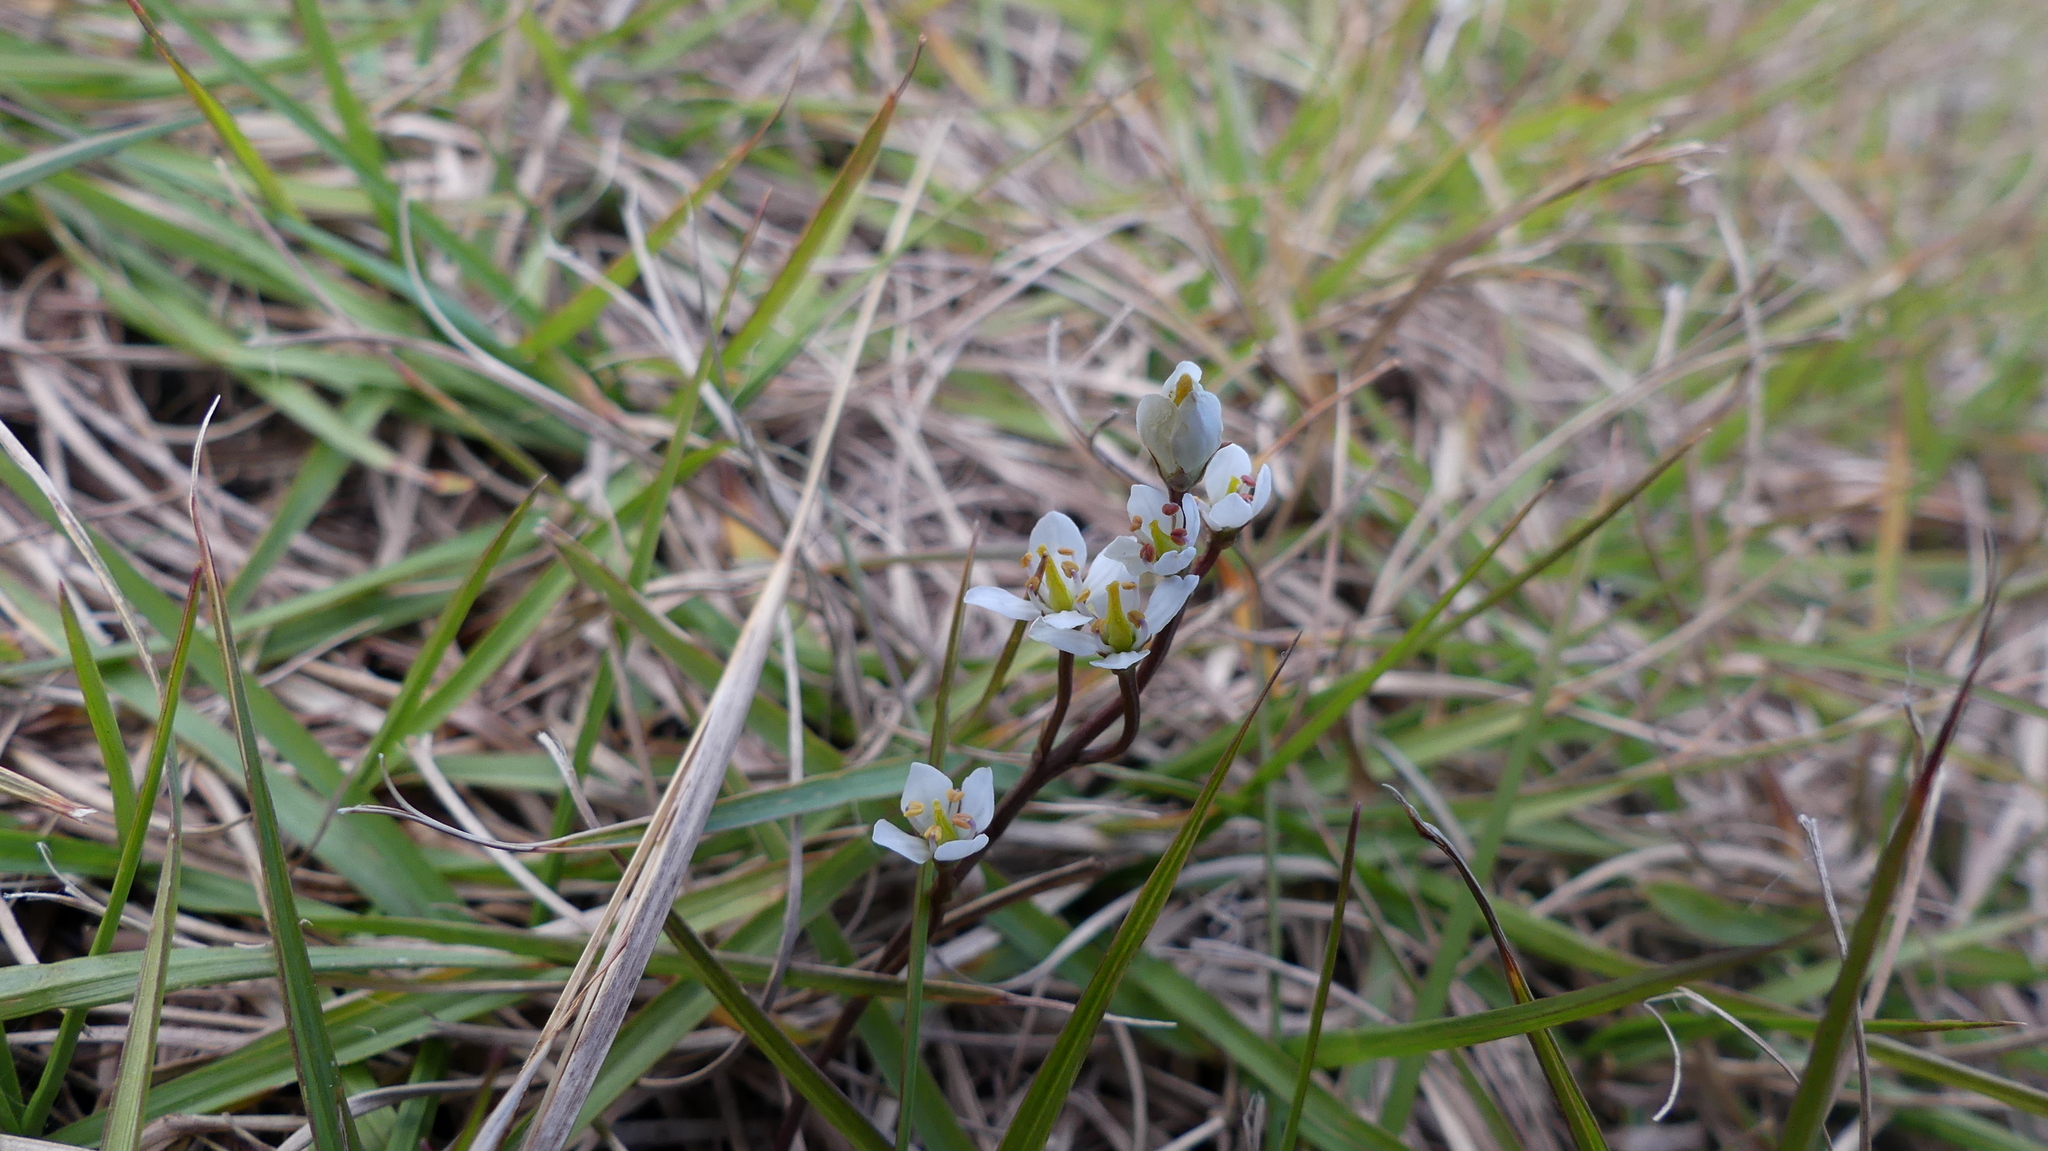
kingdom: Plantae
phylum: Tracheophyta
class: Magnoliopsida
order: Gentianales
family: Gentianaceae
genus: Bartonia
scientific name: Bartonia verna
